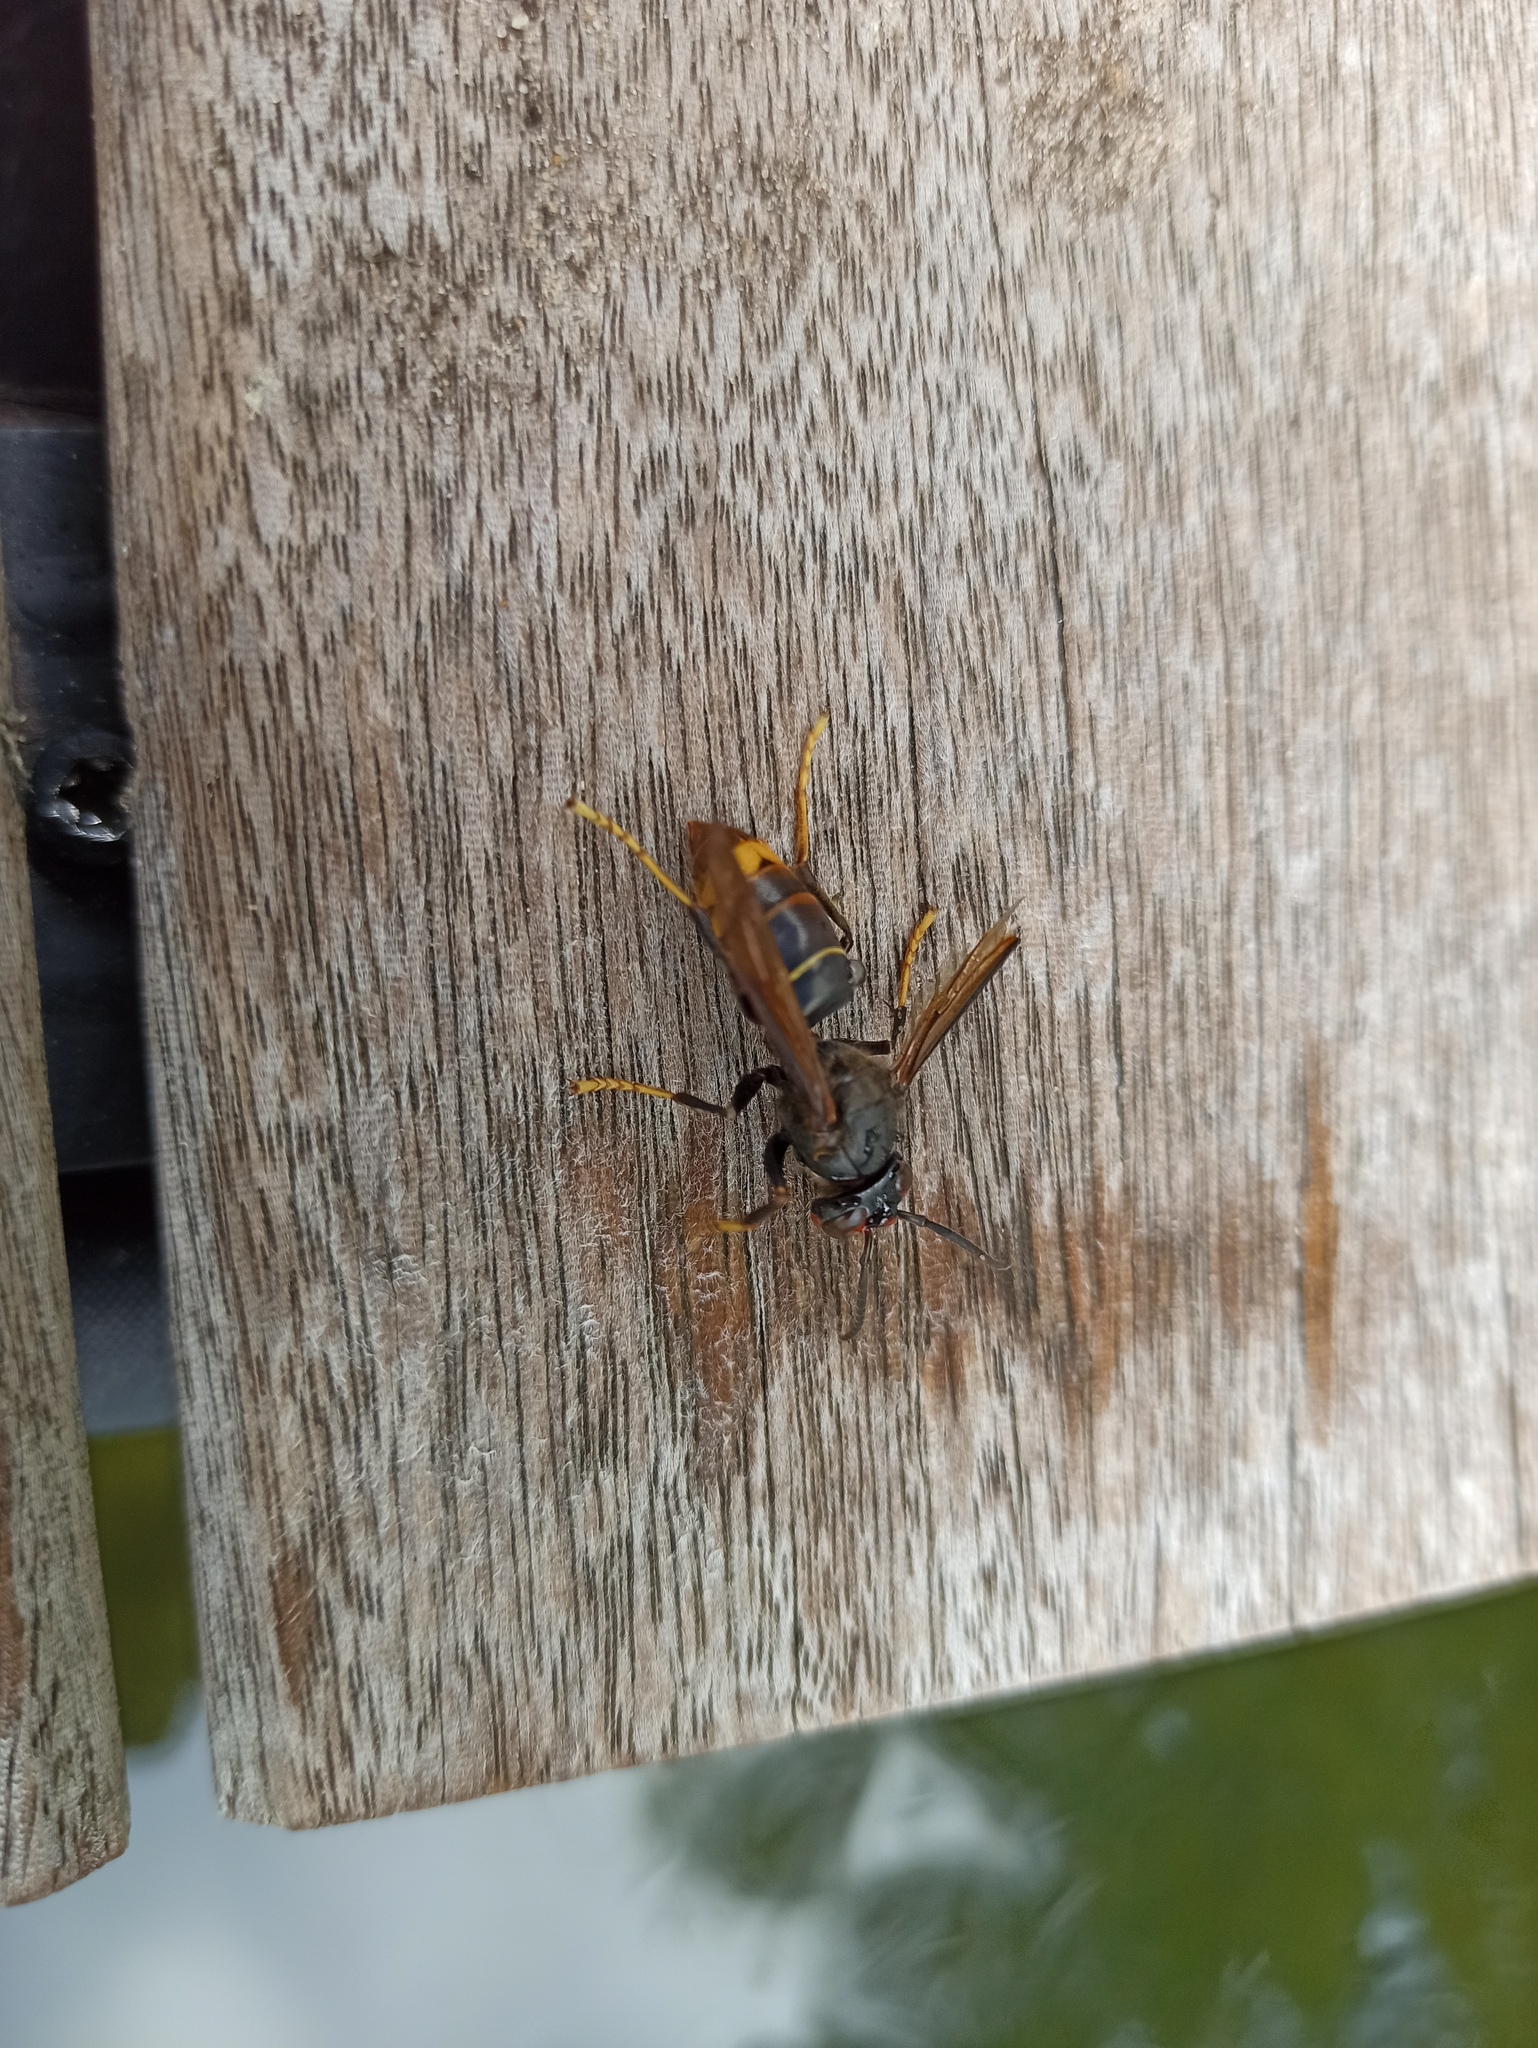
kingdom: Animalia
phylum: Arthropoda
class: Insecta
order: Hymenoptera
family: Vespidae
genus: Vespa
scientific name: Vespa velutina
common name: Asian hornet
